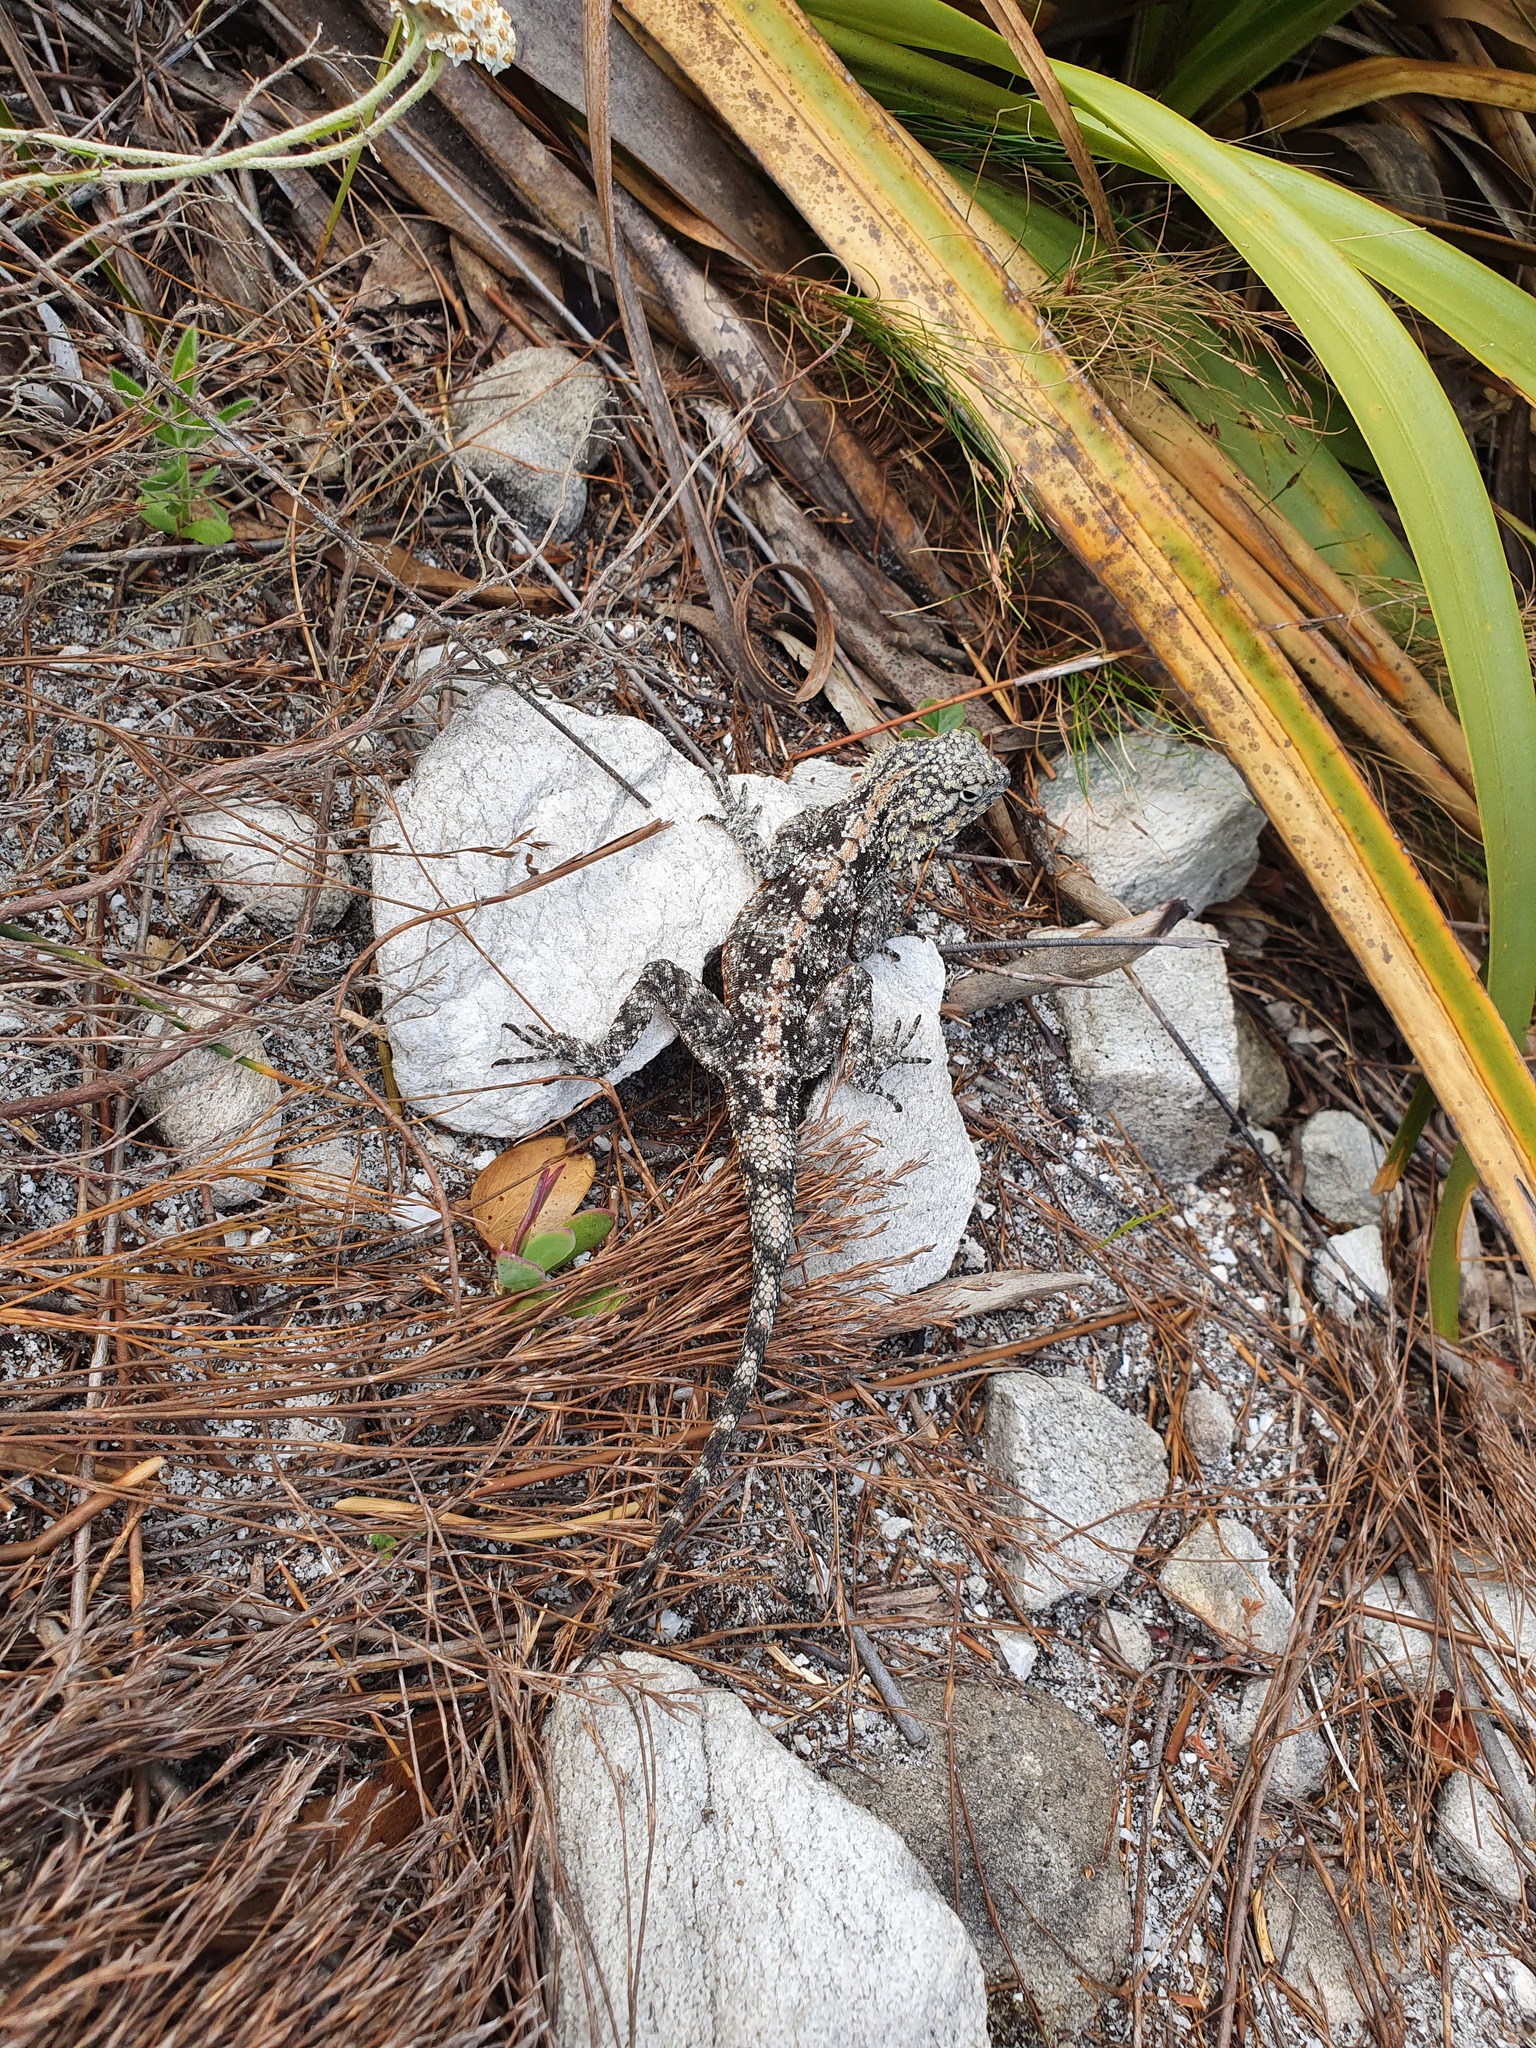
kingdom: Animalia
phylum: Chordata
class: Squamata
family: Agamidae
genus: Agama
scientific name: Agama atra
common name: Southern african rock agama
